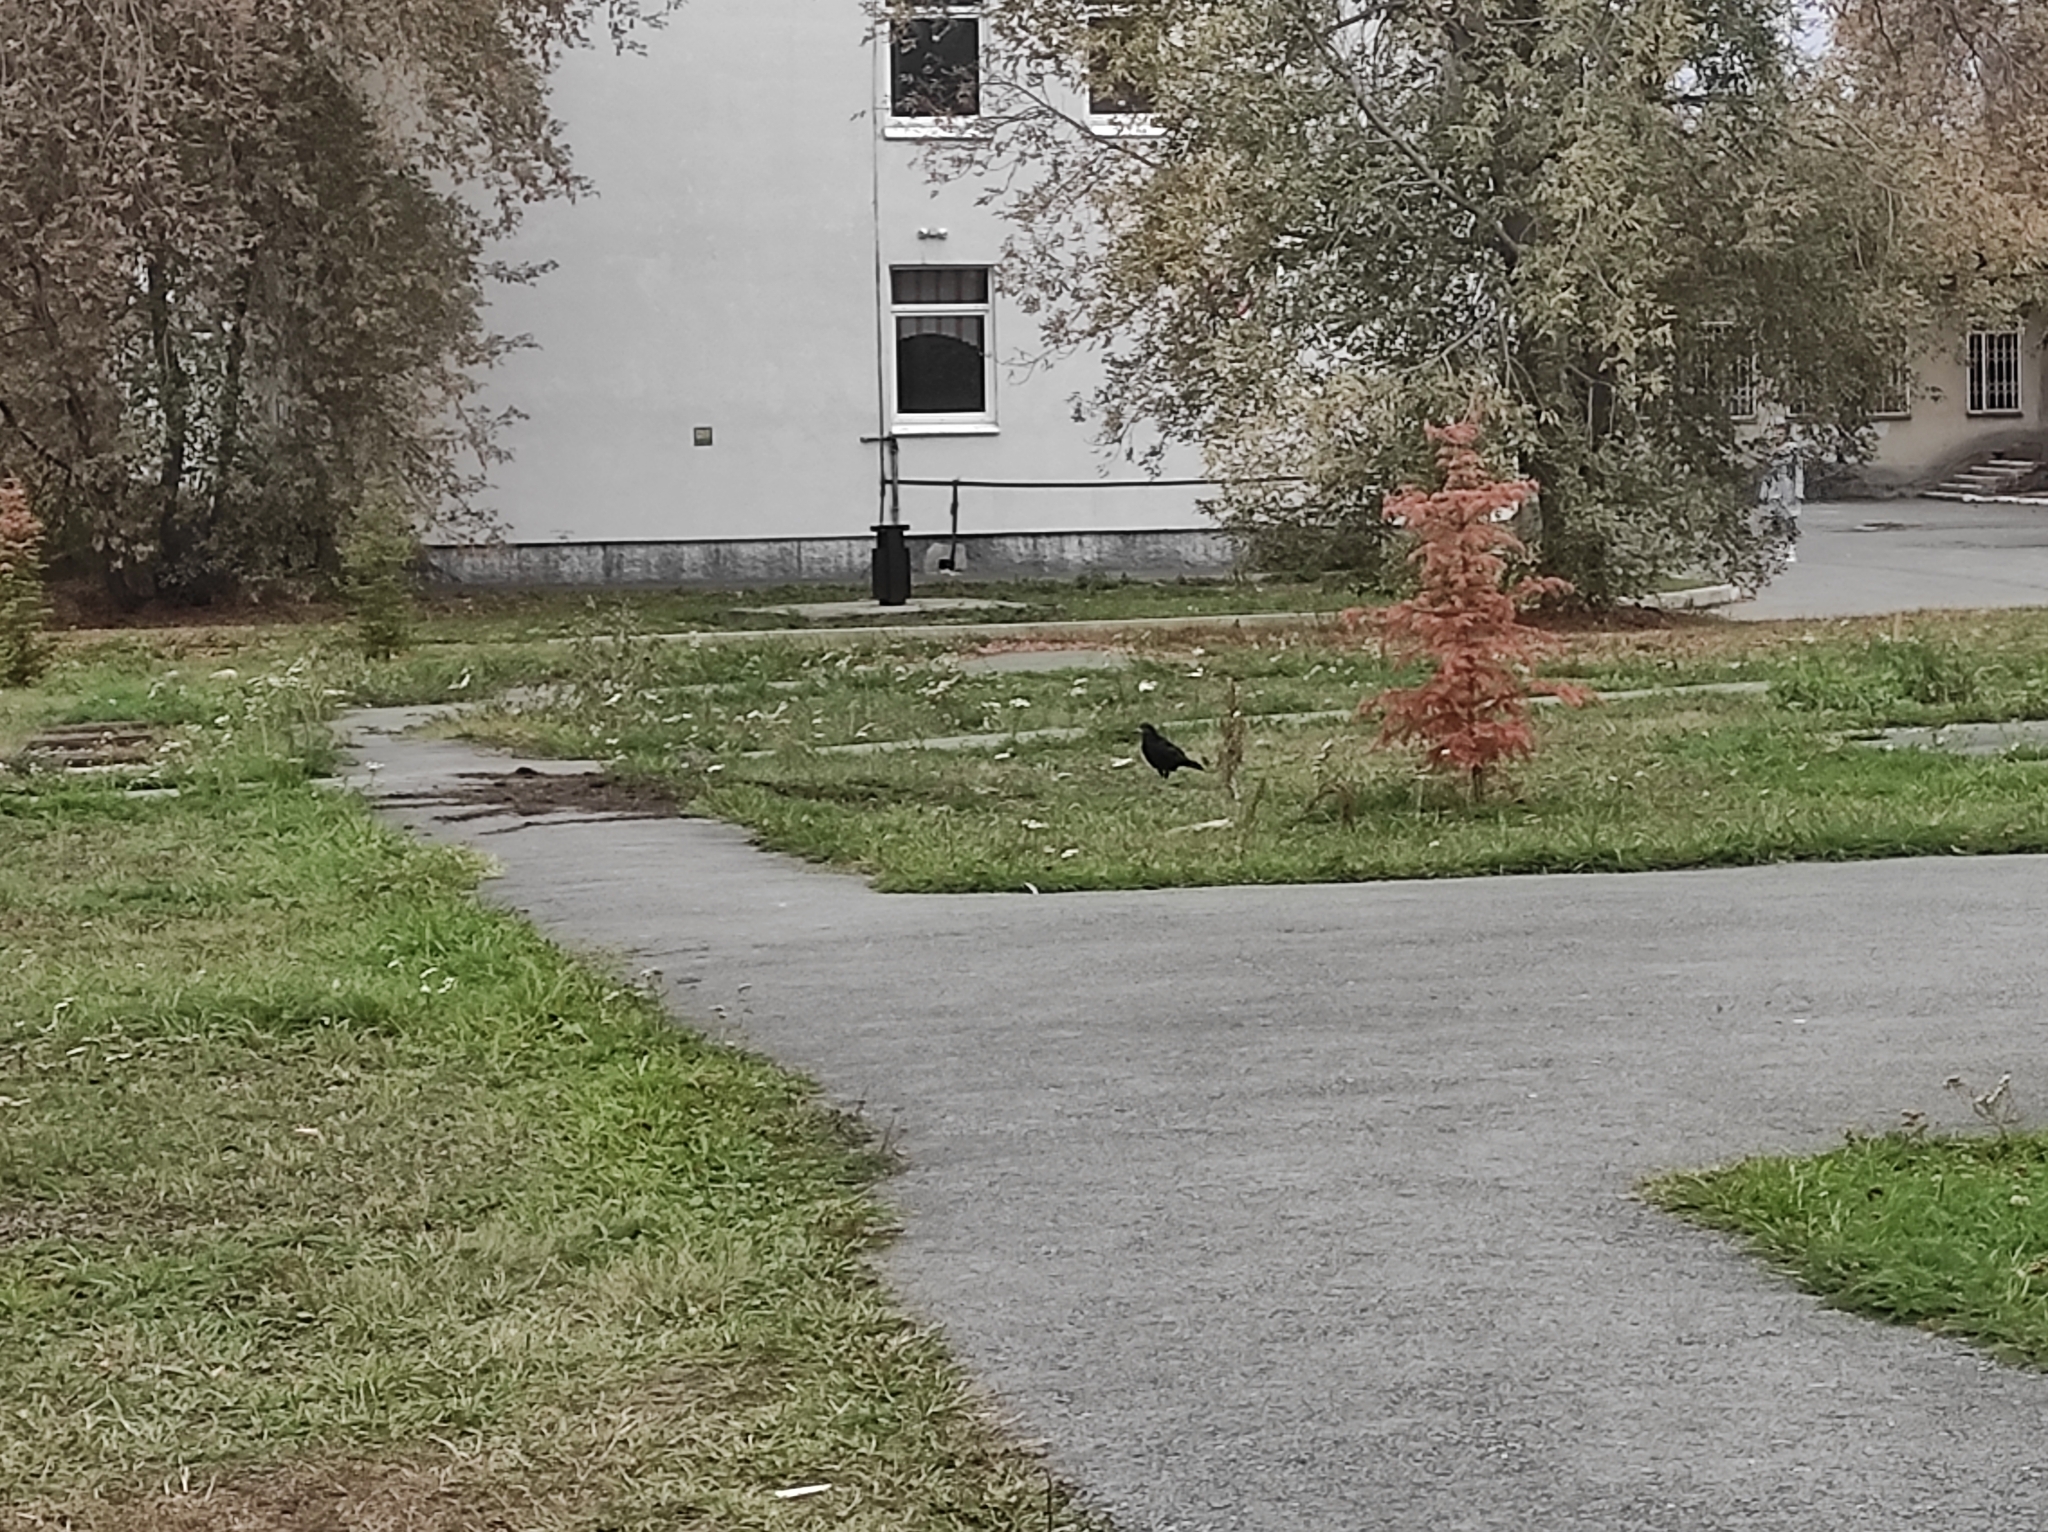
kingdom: Animalia
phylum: Chordata
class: Aves
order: Passeriformes
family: Corvidae
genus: Corvus
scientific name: Corvus frugilegus
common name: Rook
